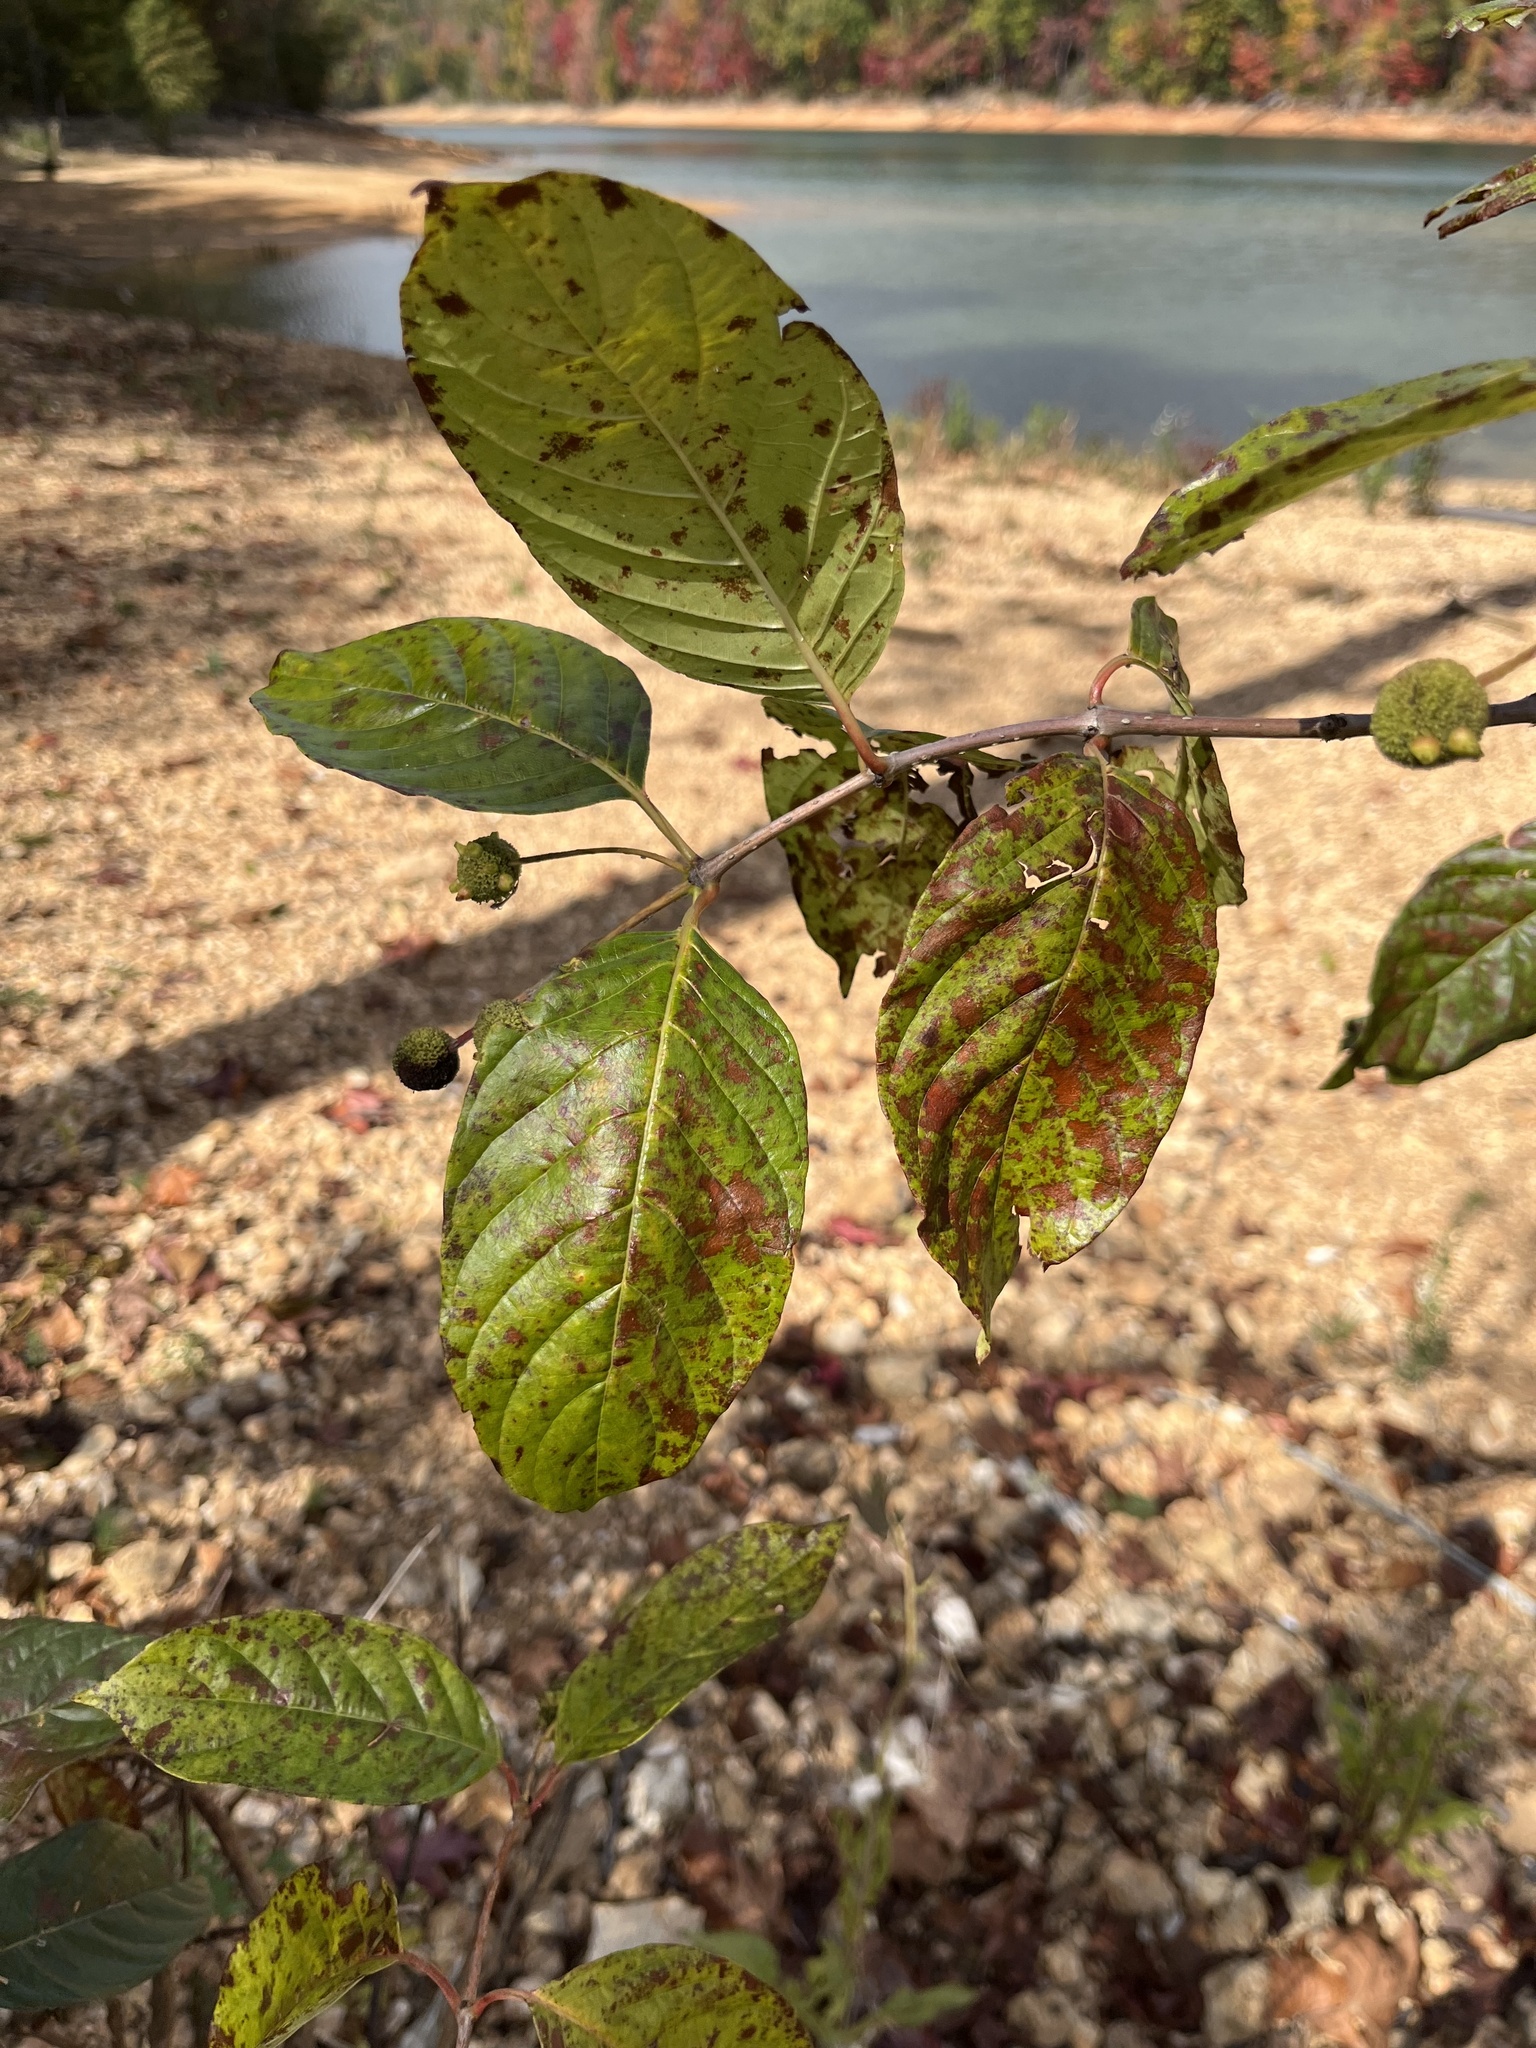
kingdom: Plantae
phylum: Tracheophyta
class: Magnoliopsida
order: Gentianales
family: Rubiaceae
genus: Cephalanthus
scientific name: Cephalanthus occidentalis
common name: Button-willow
